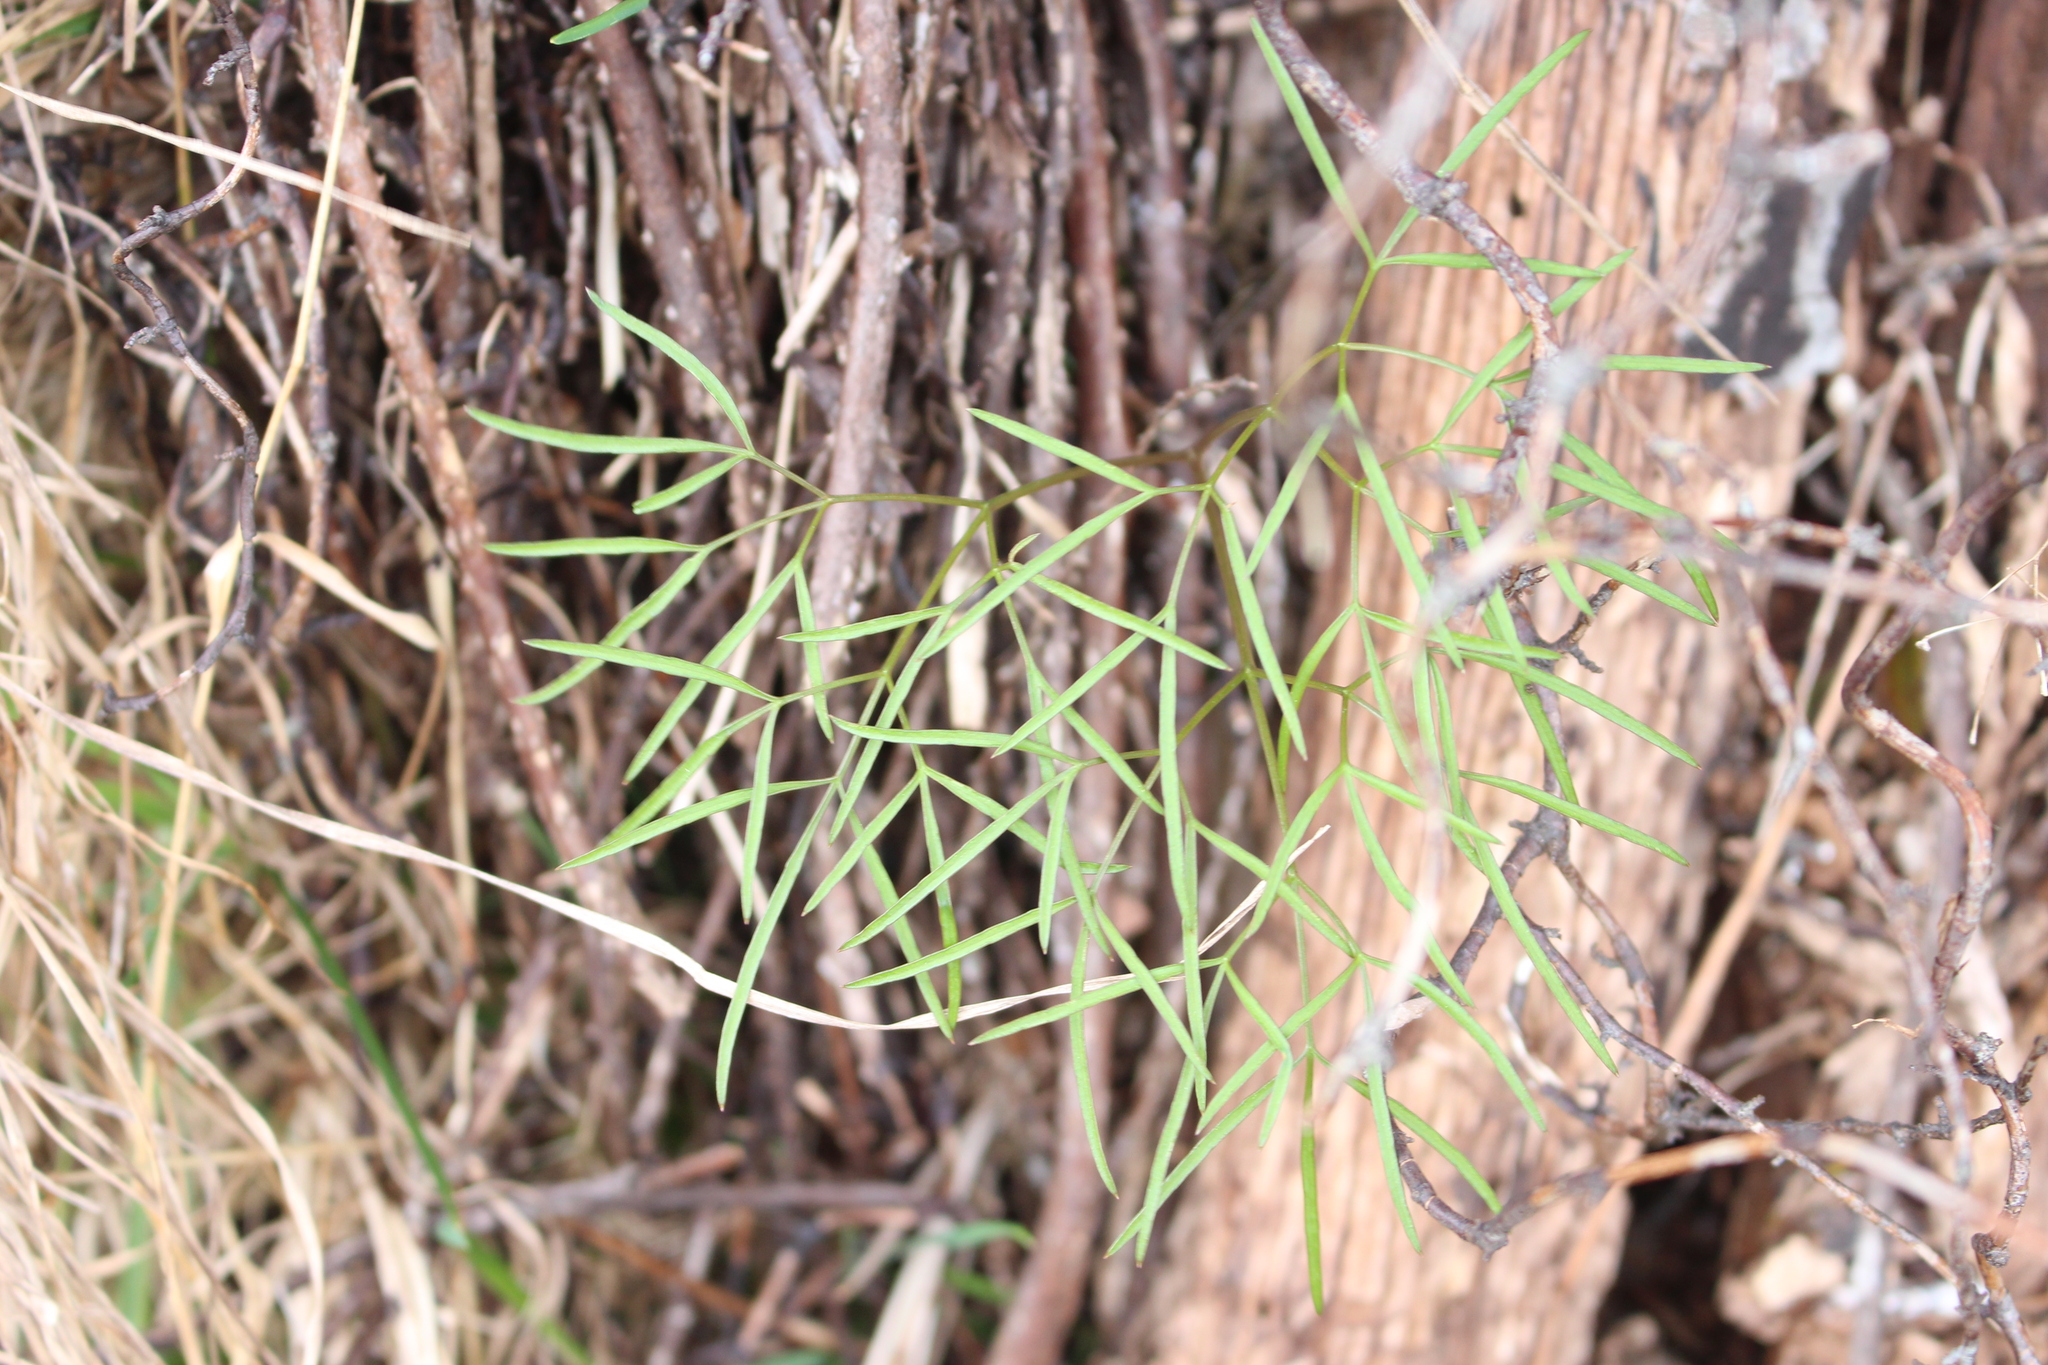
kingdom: Plantae
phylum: Tracheophyta
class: Magnoliopsida
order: Apiales
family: Apiaceae
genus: Anisotome
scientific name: Anisotome filifolia
